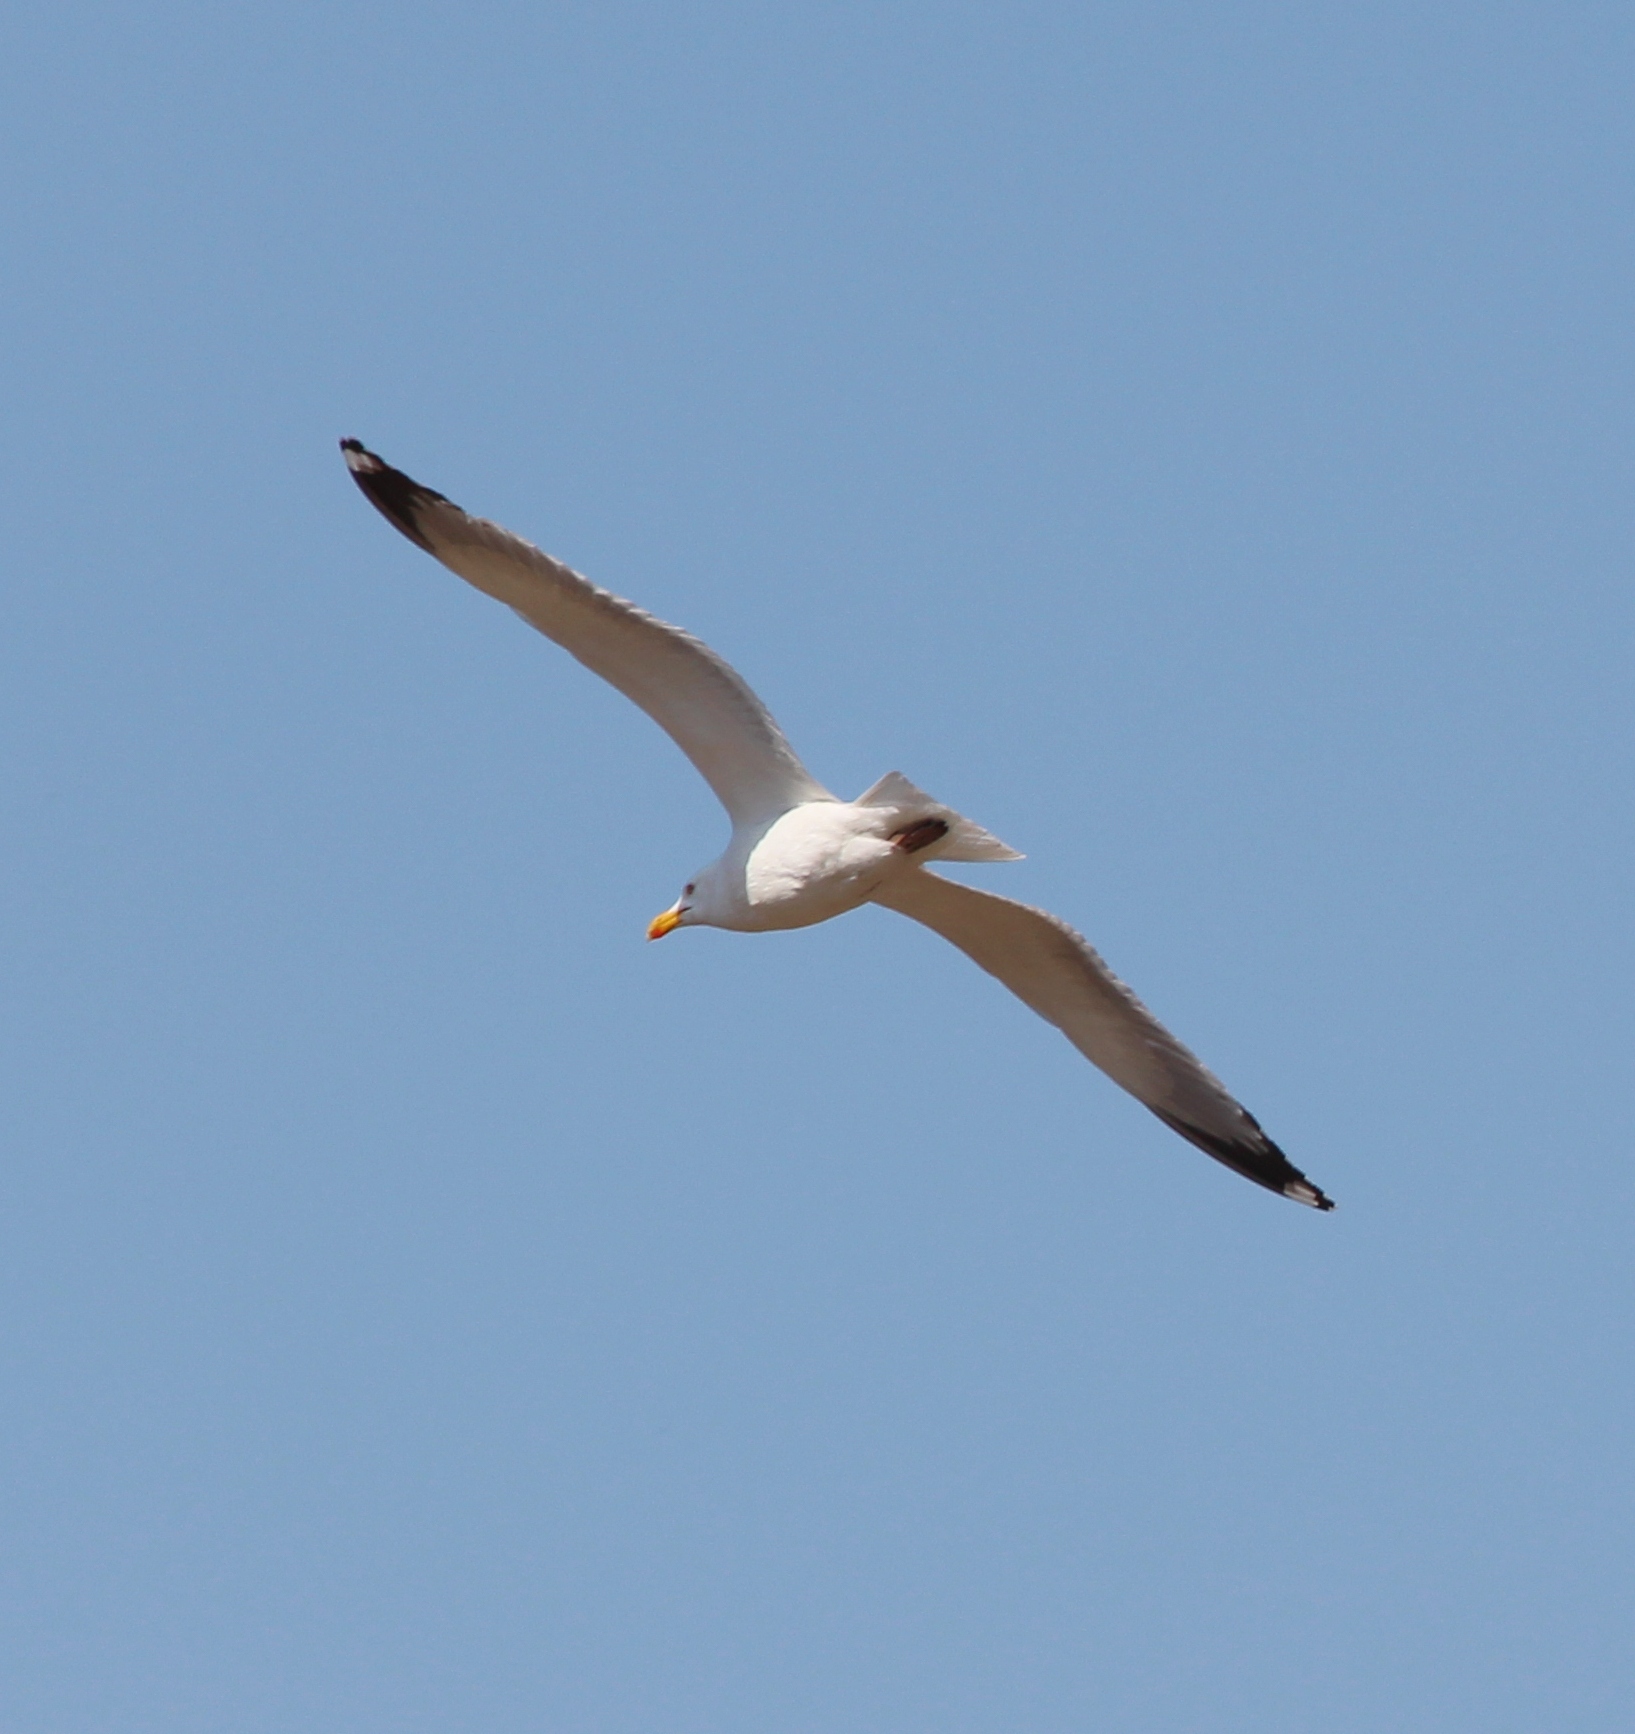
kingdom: Animalia
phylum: Chordata
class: Aves
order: Charadriiformes
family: Laridae
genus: Larus
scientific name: Larus vegae
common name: Vega gull
